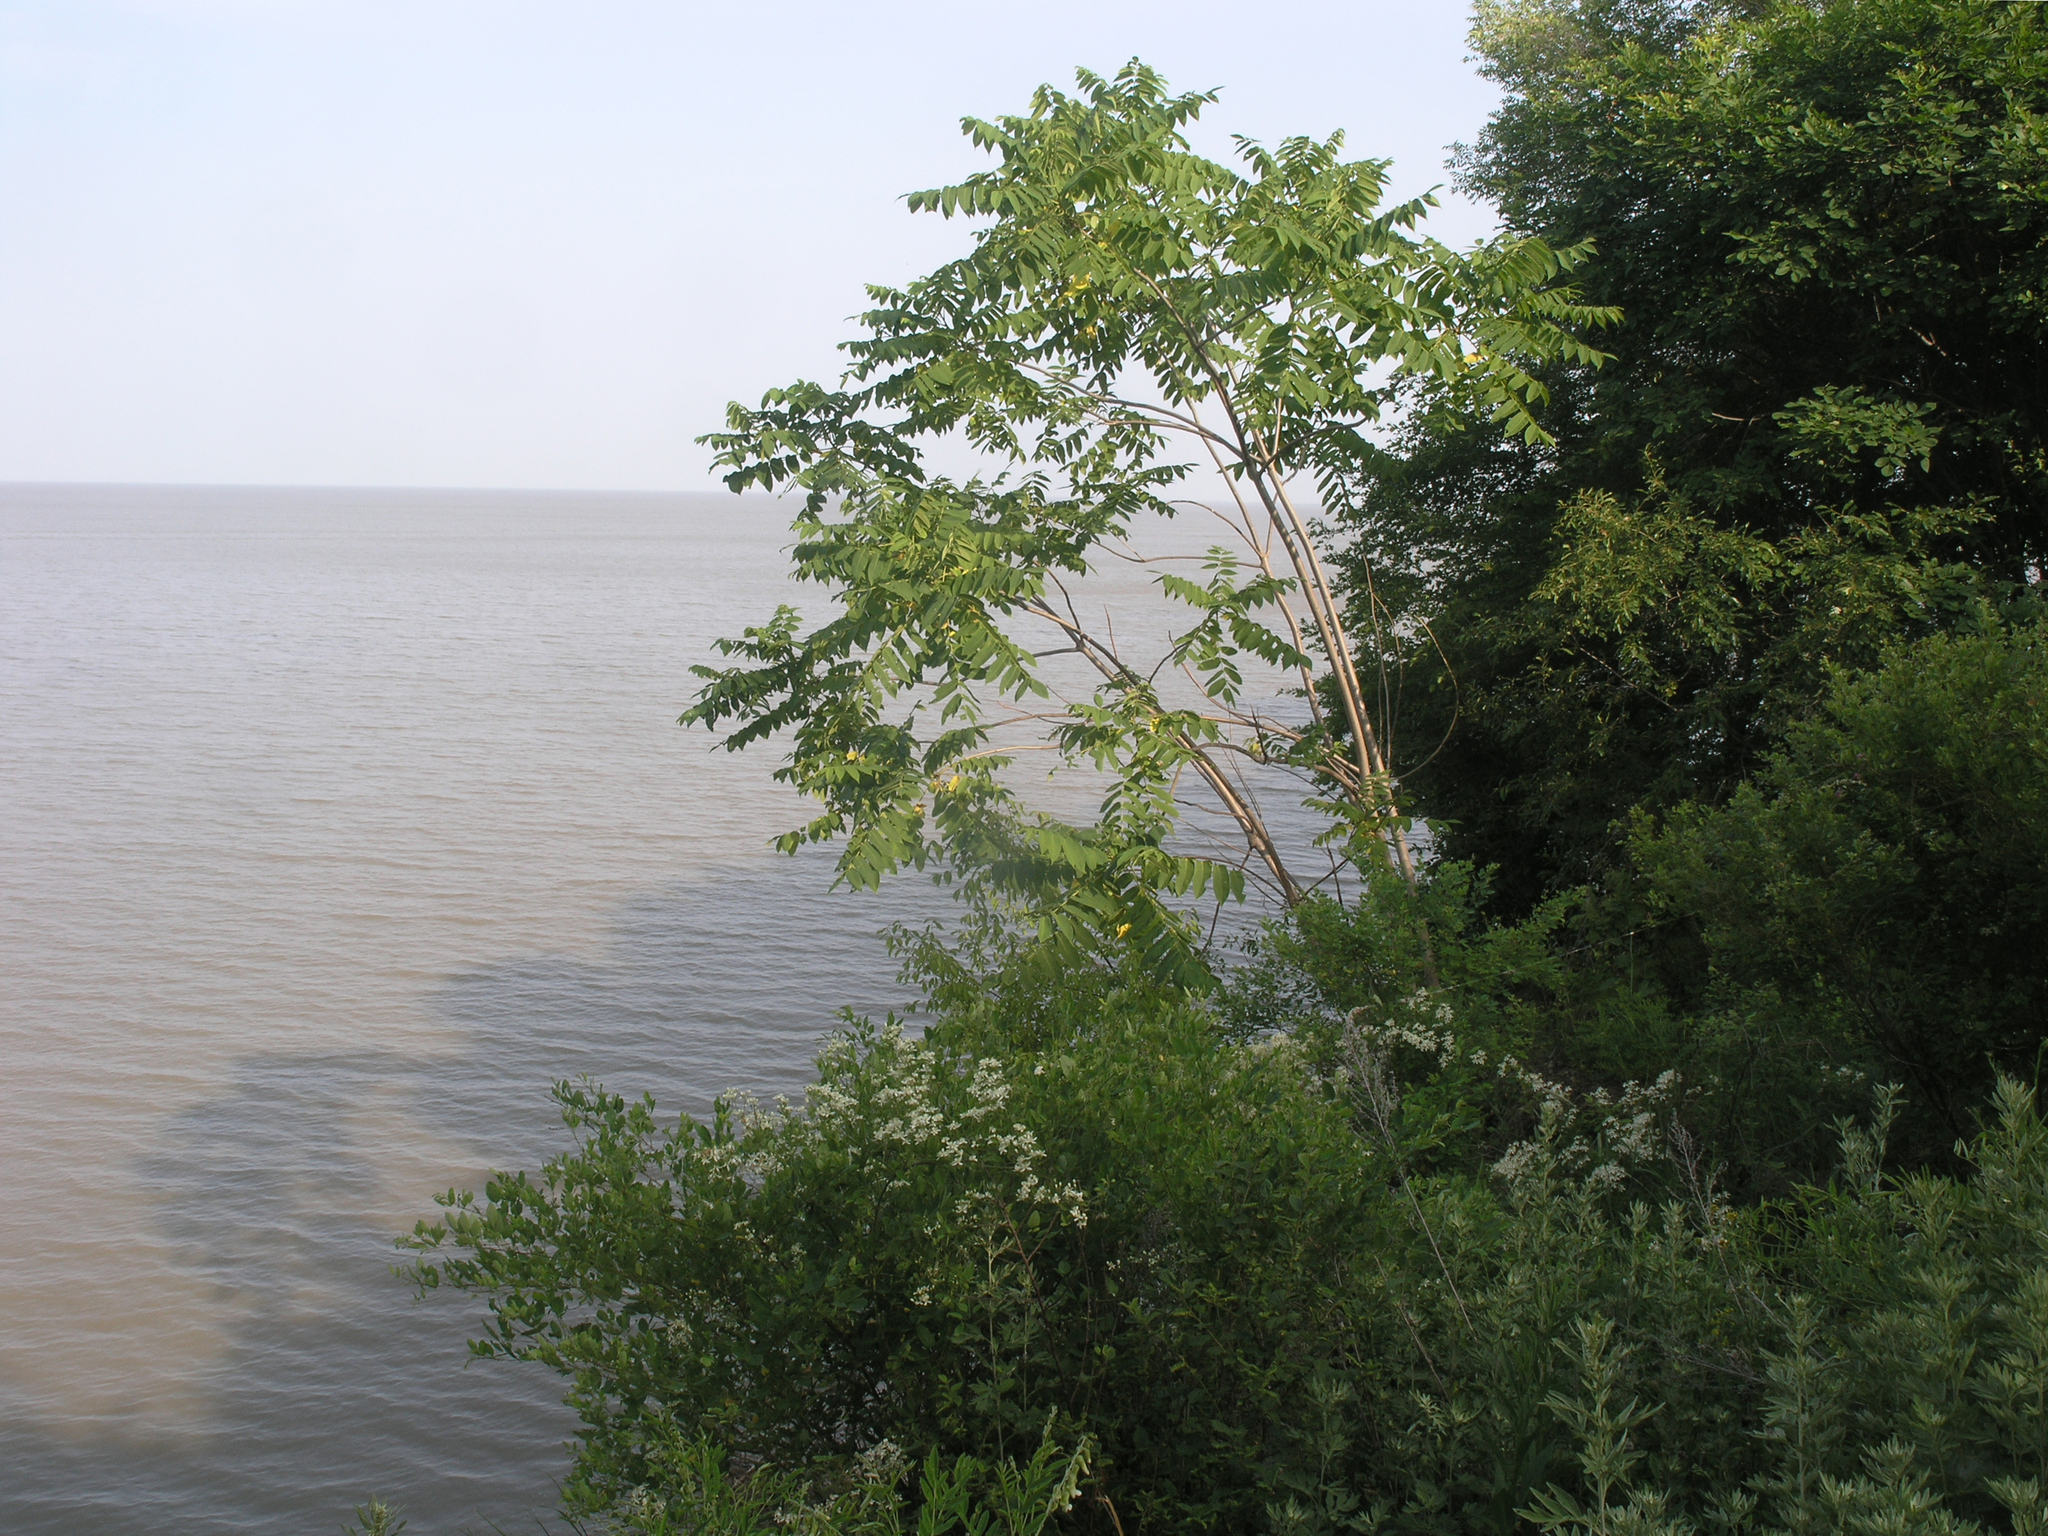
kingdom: Plantae
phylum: Tracheophyta
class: Magnoliopsida
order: Fagales
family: Juglandaceae
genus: Juglans
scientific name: Juglans mandshurica
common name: Manchurian walnut
